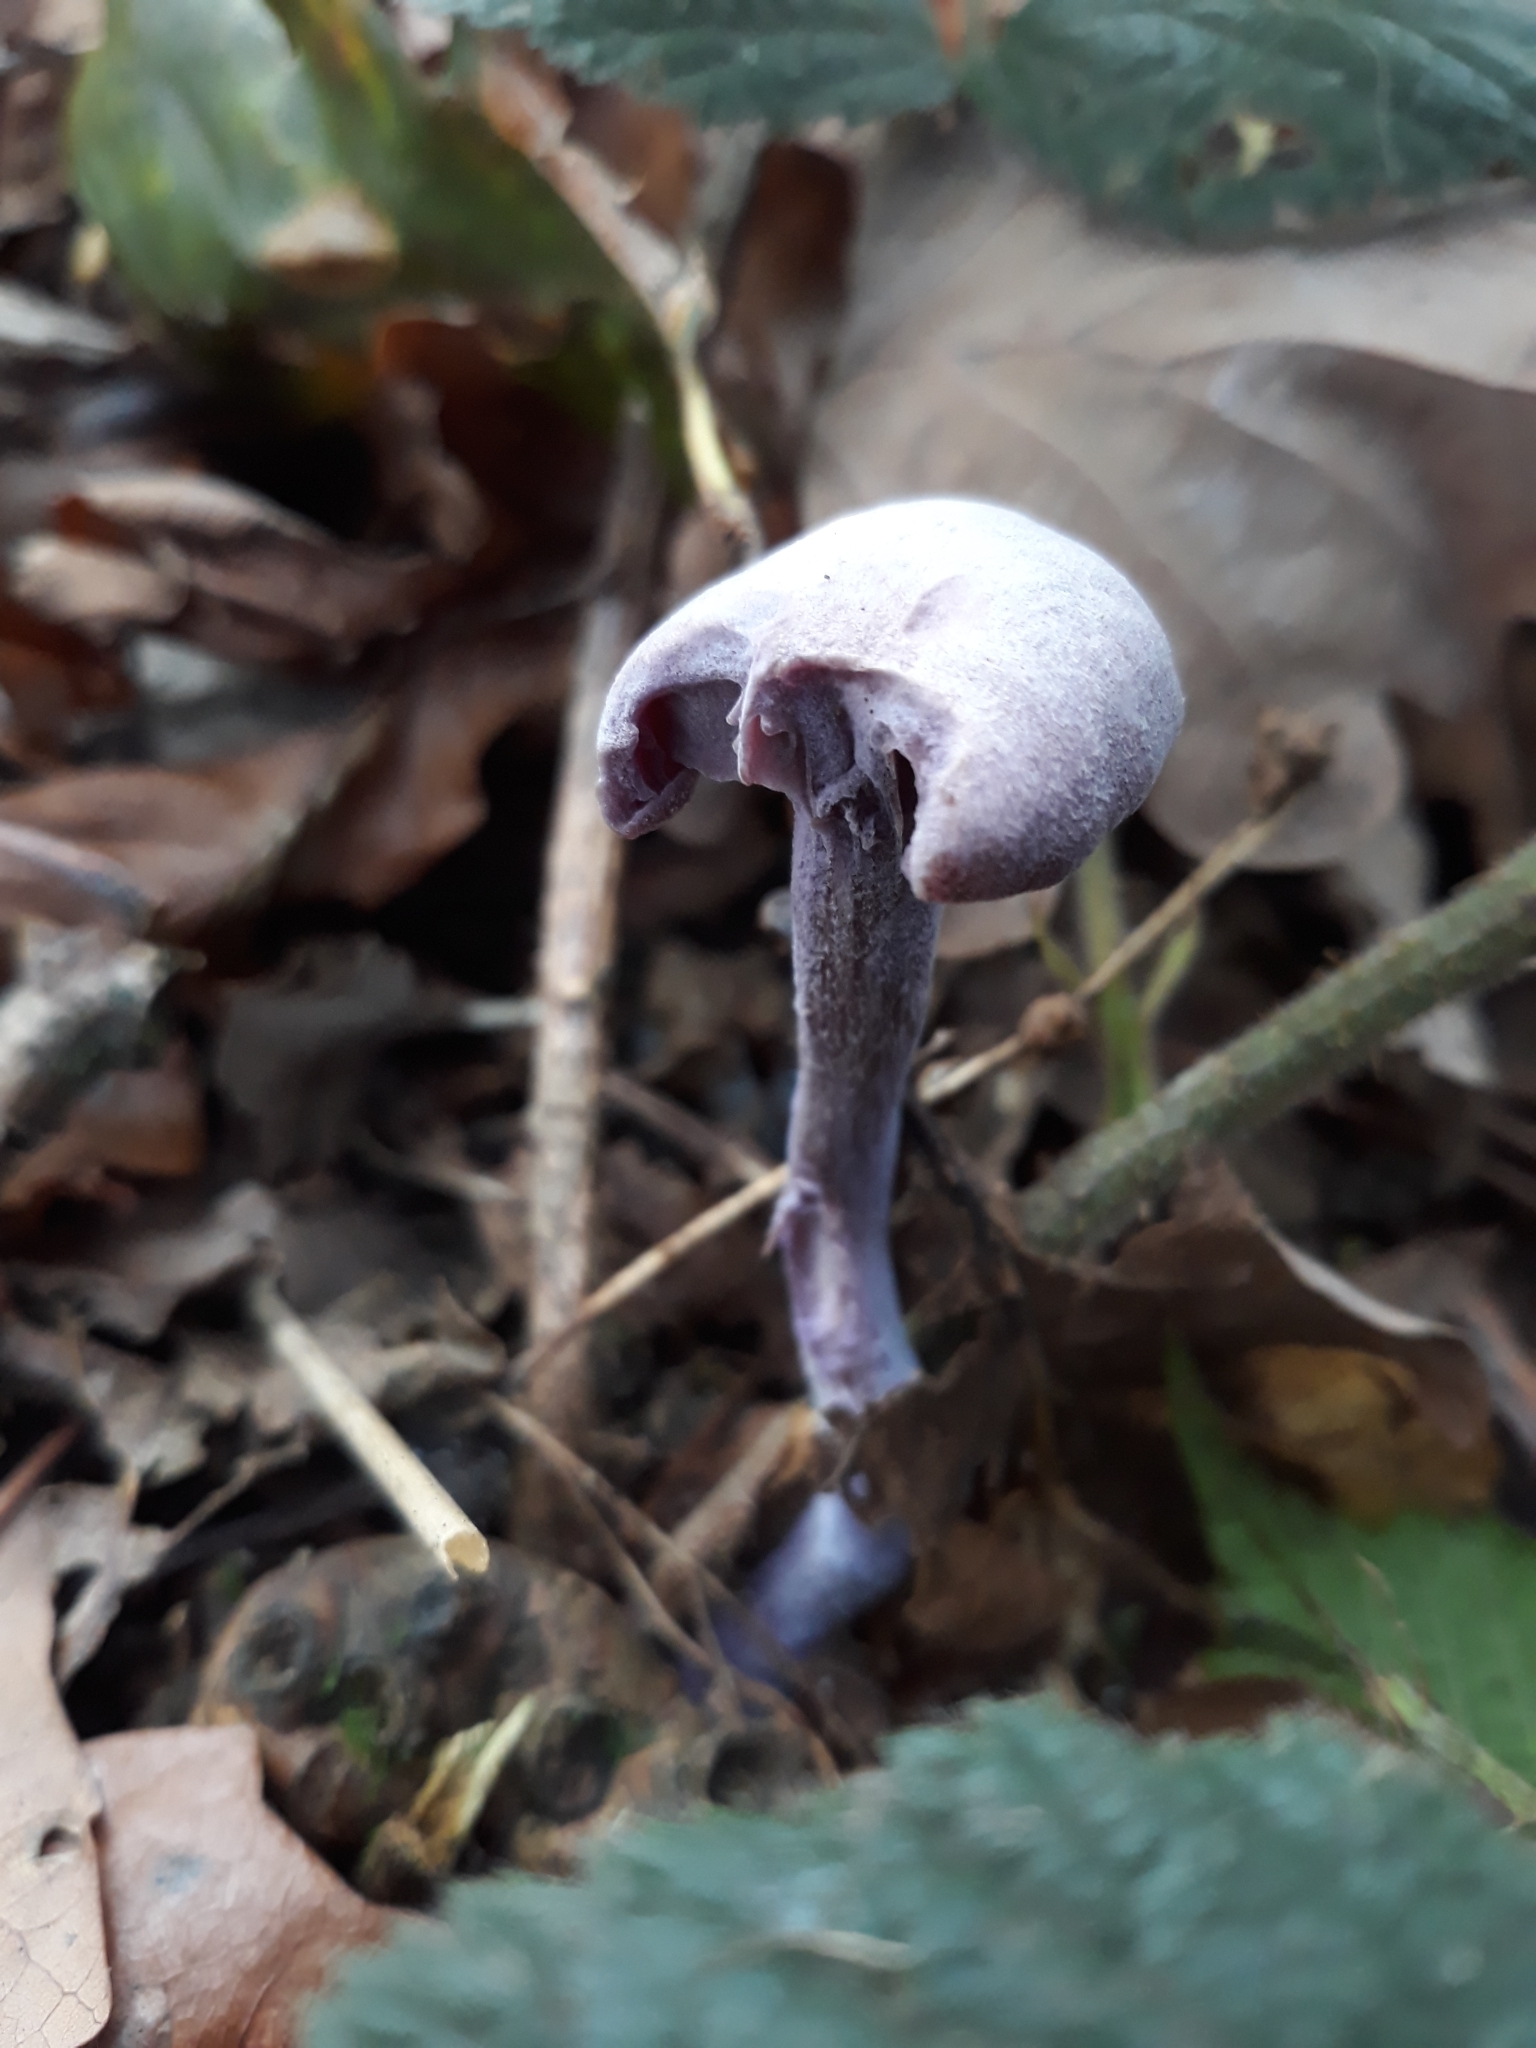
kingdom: Fungi
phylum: Basidiomycota
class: Agaricomycetes
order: Agaricales
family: Hydnangiaceae
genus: Laccaria
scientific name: Laccaria amethystina
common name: Amethyst deceiver
